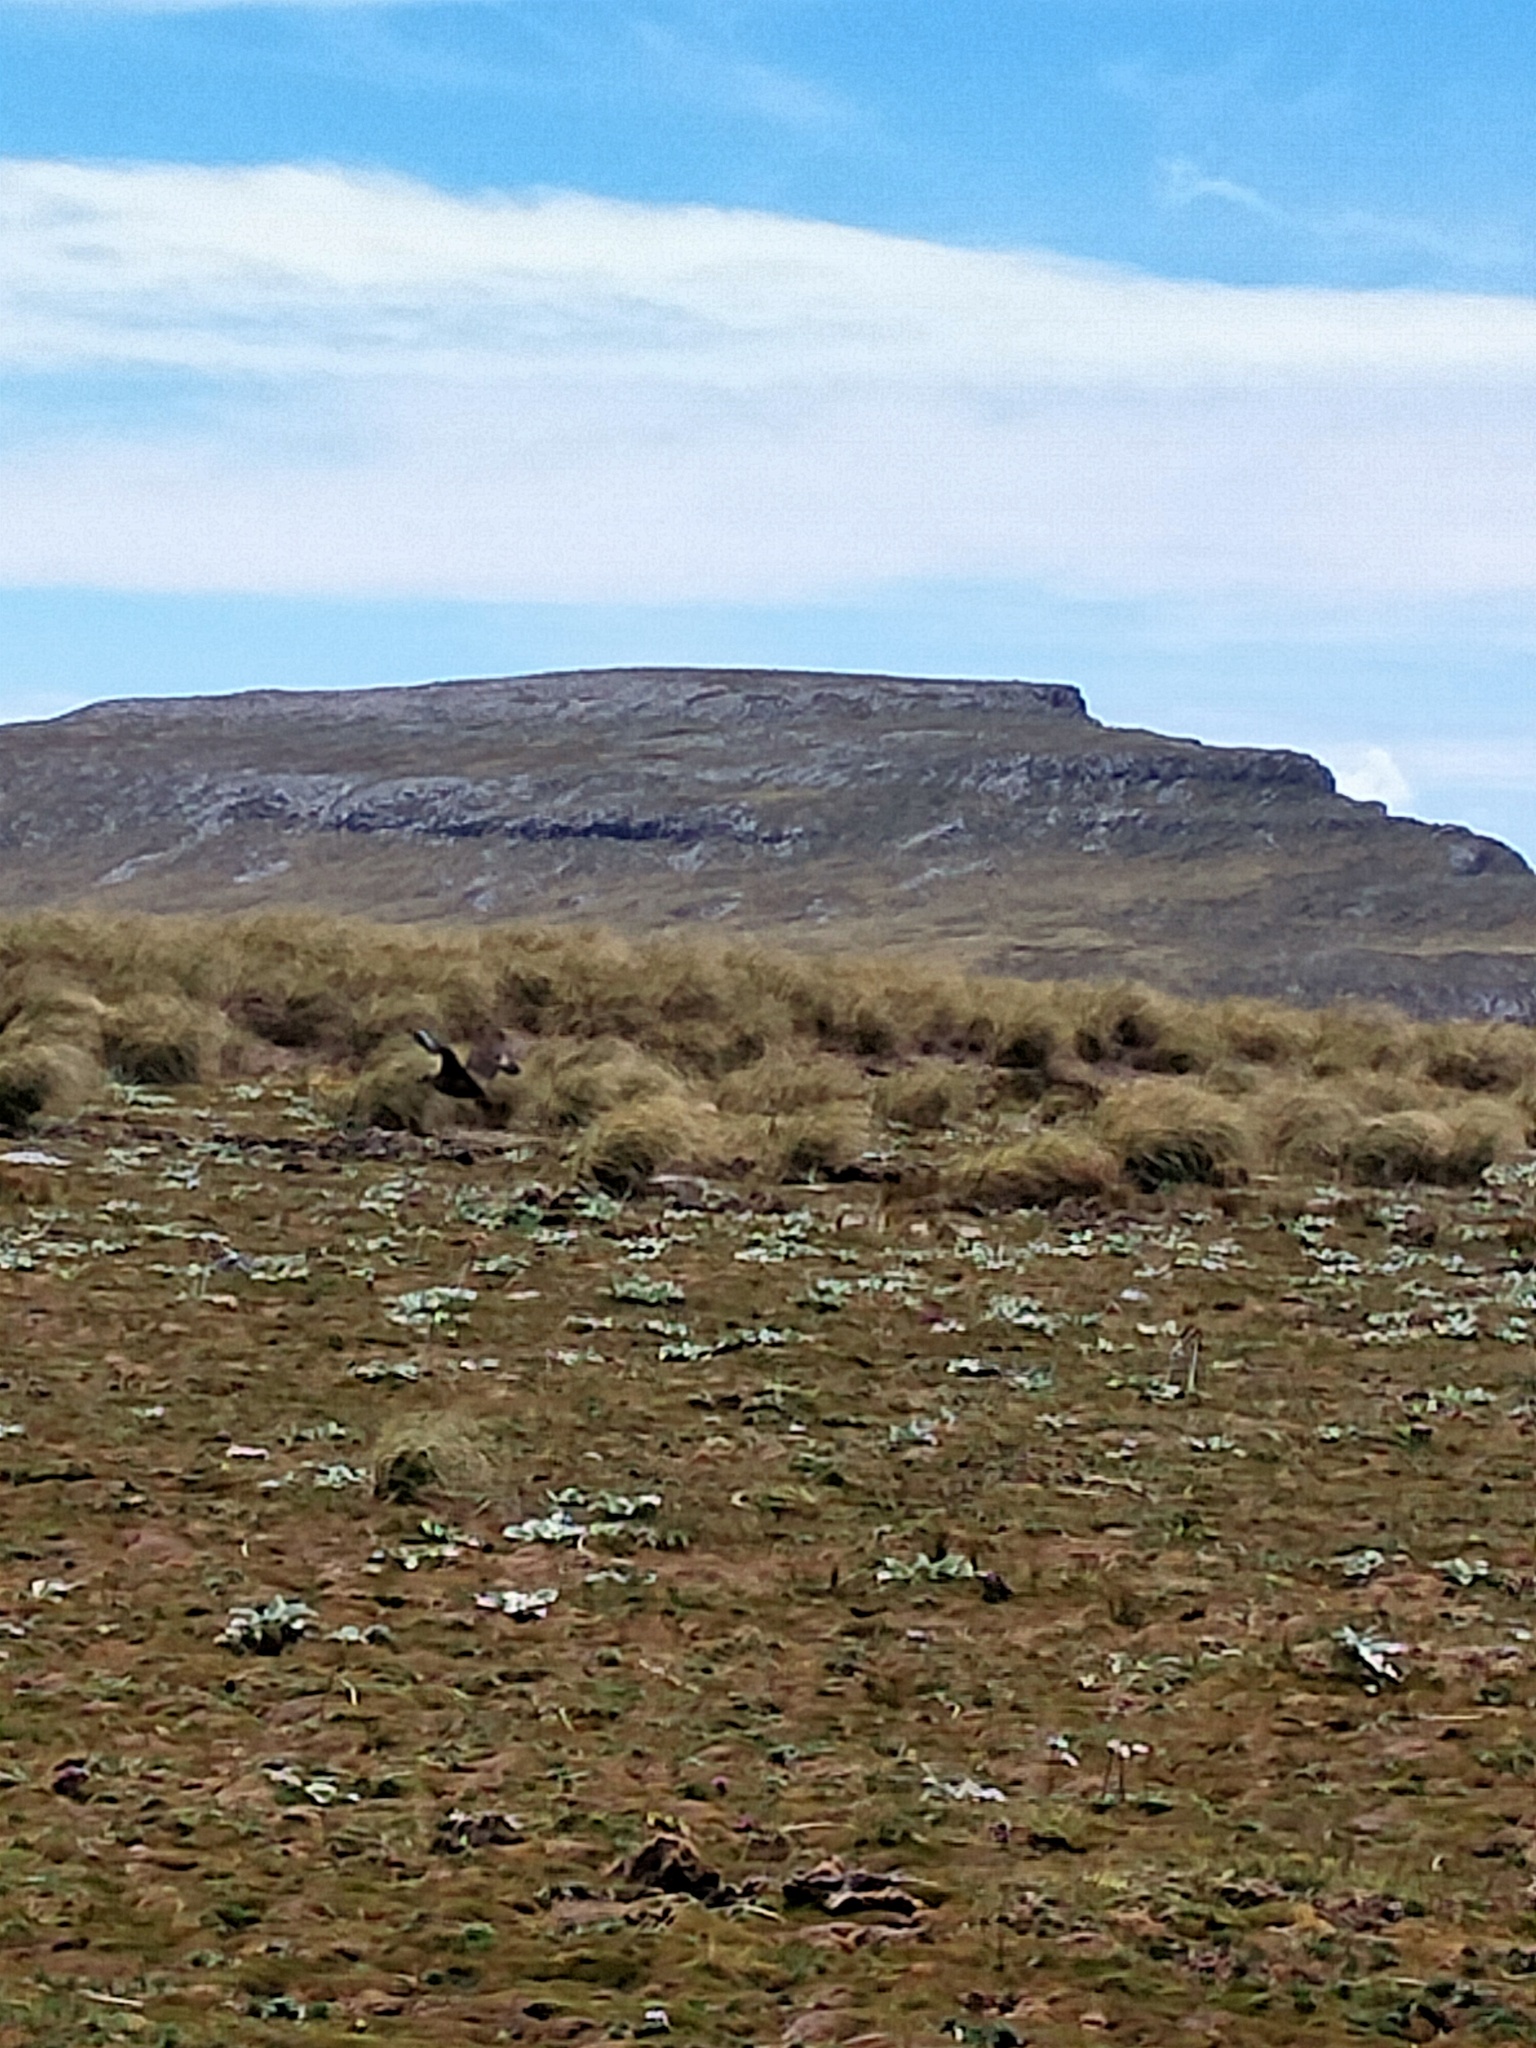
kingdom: Animalia
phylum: Chordata
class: Aves
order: Charadriiformes
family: Stercorariidae
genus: Stercorarius
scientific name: Stercorarius antarcticus
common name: Brown skua
